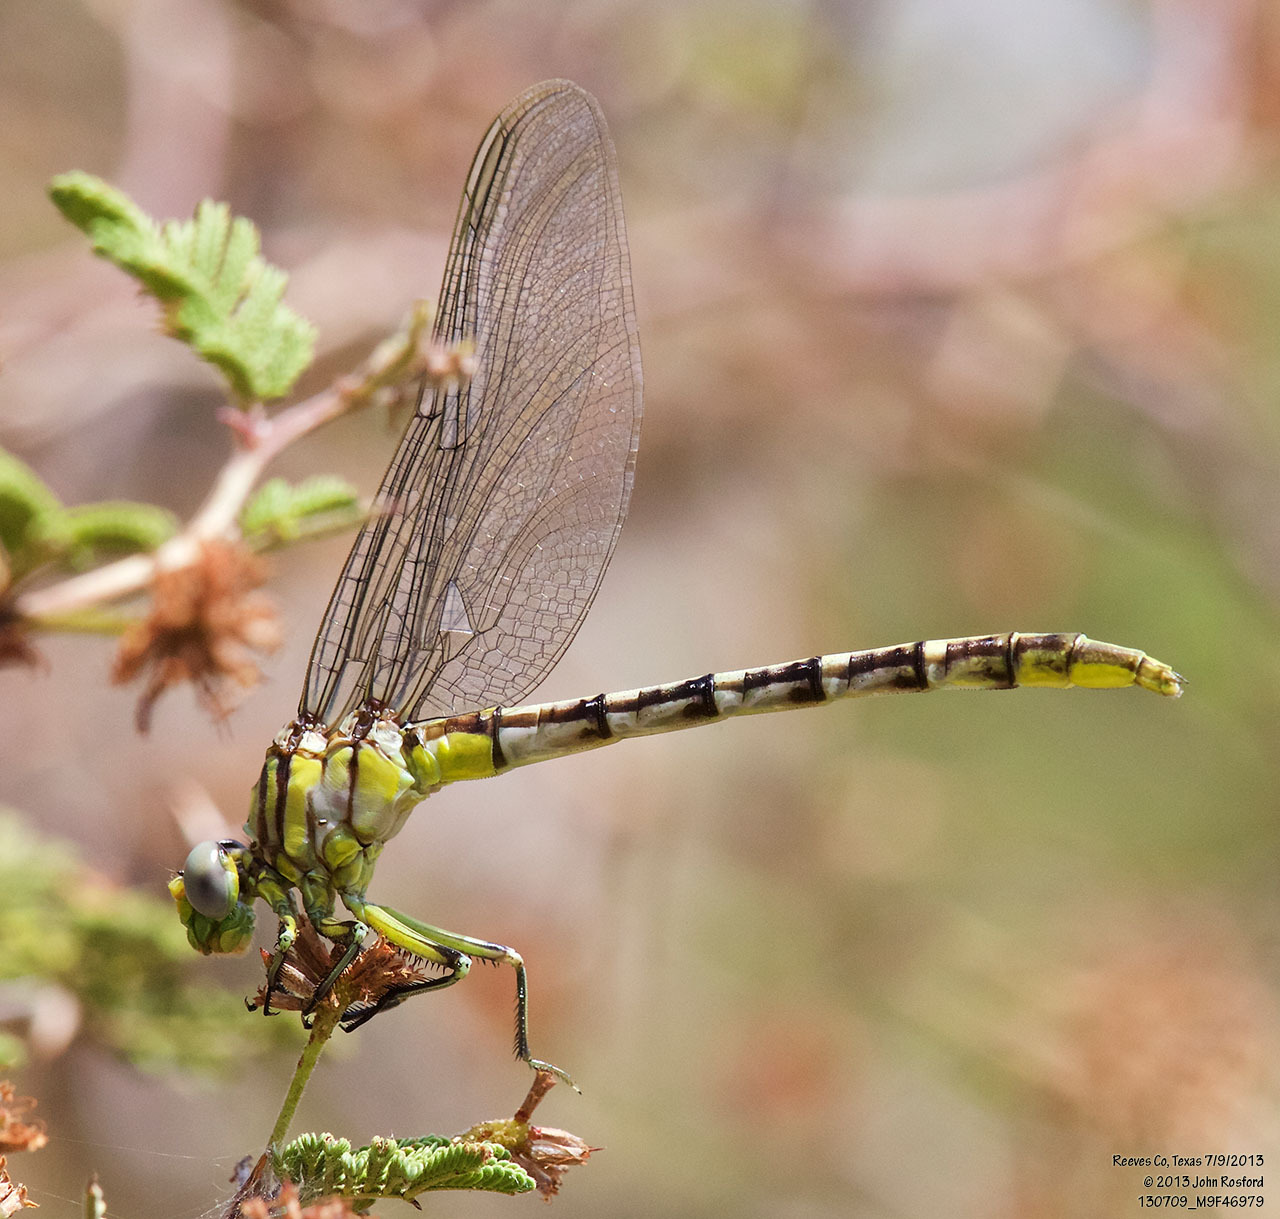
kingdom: Animalia
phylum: Arthropoda
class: Insecta
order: Odonata
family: Gomphidae
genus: Phanogomphus
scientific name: Phanogomphus militaris
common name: Sulphur-tipped clubtail
